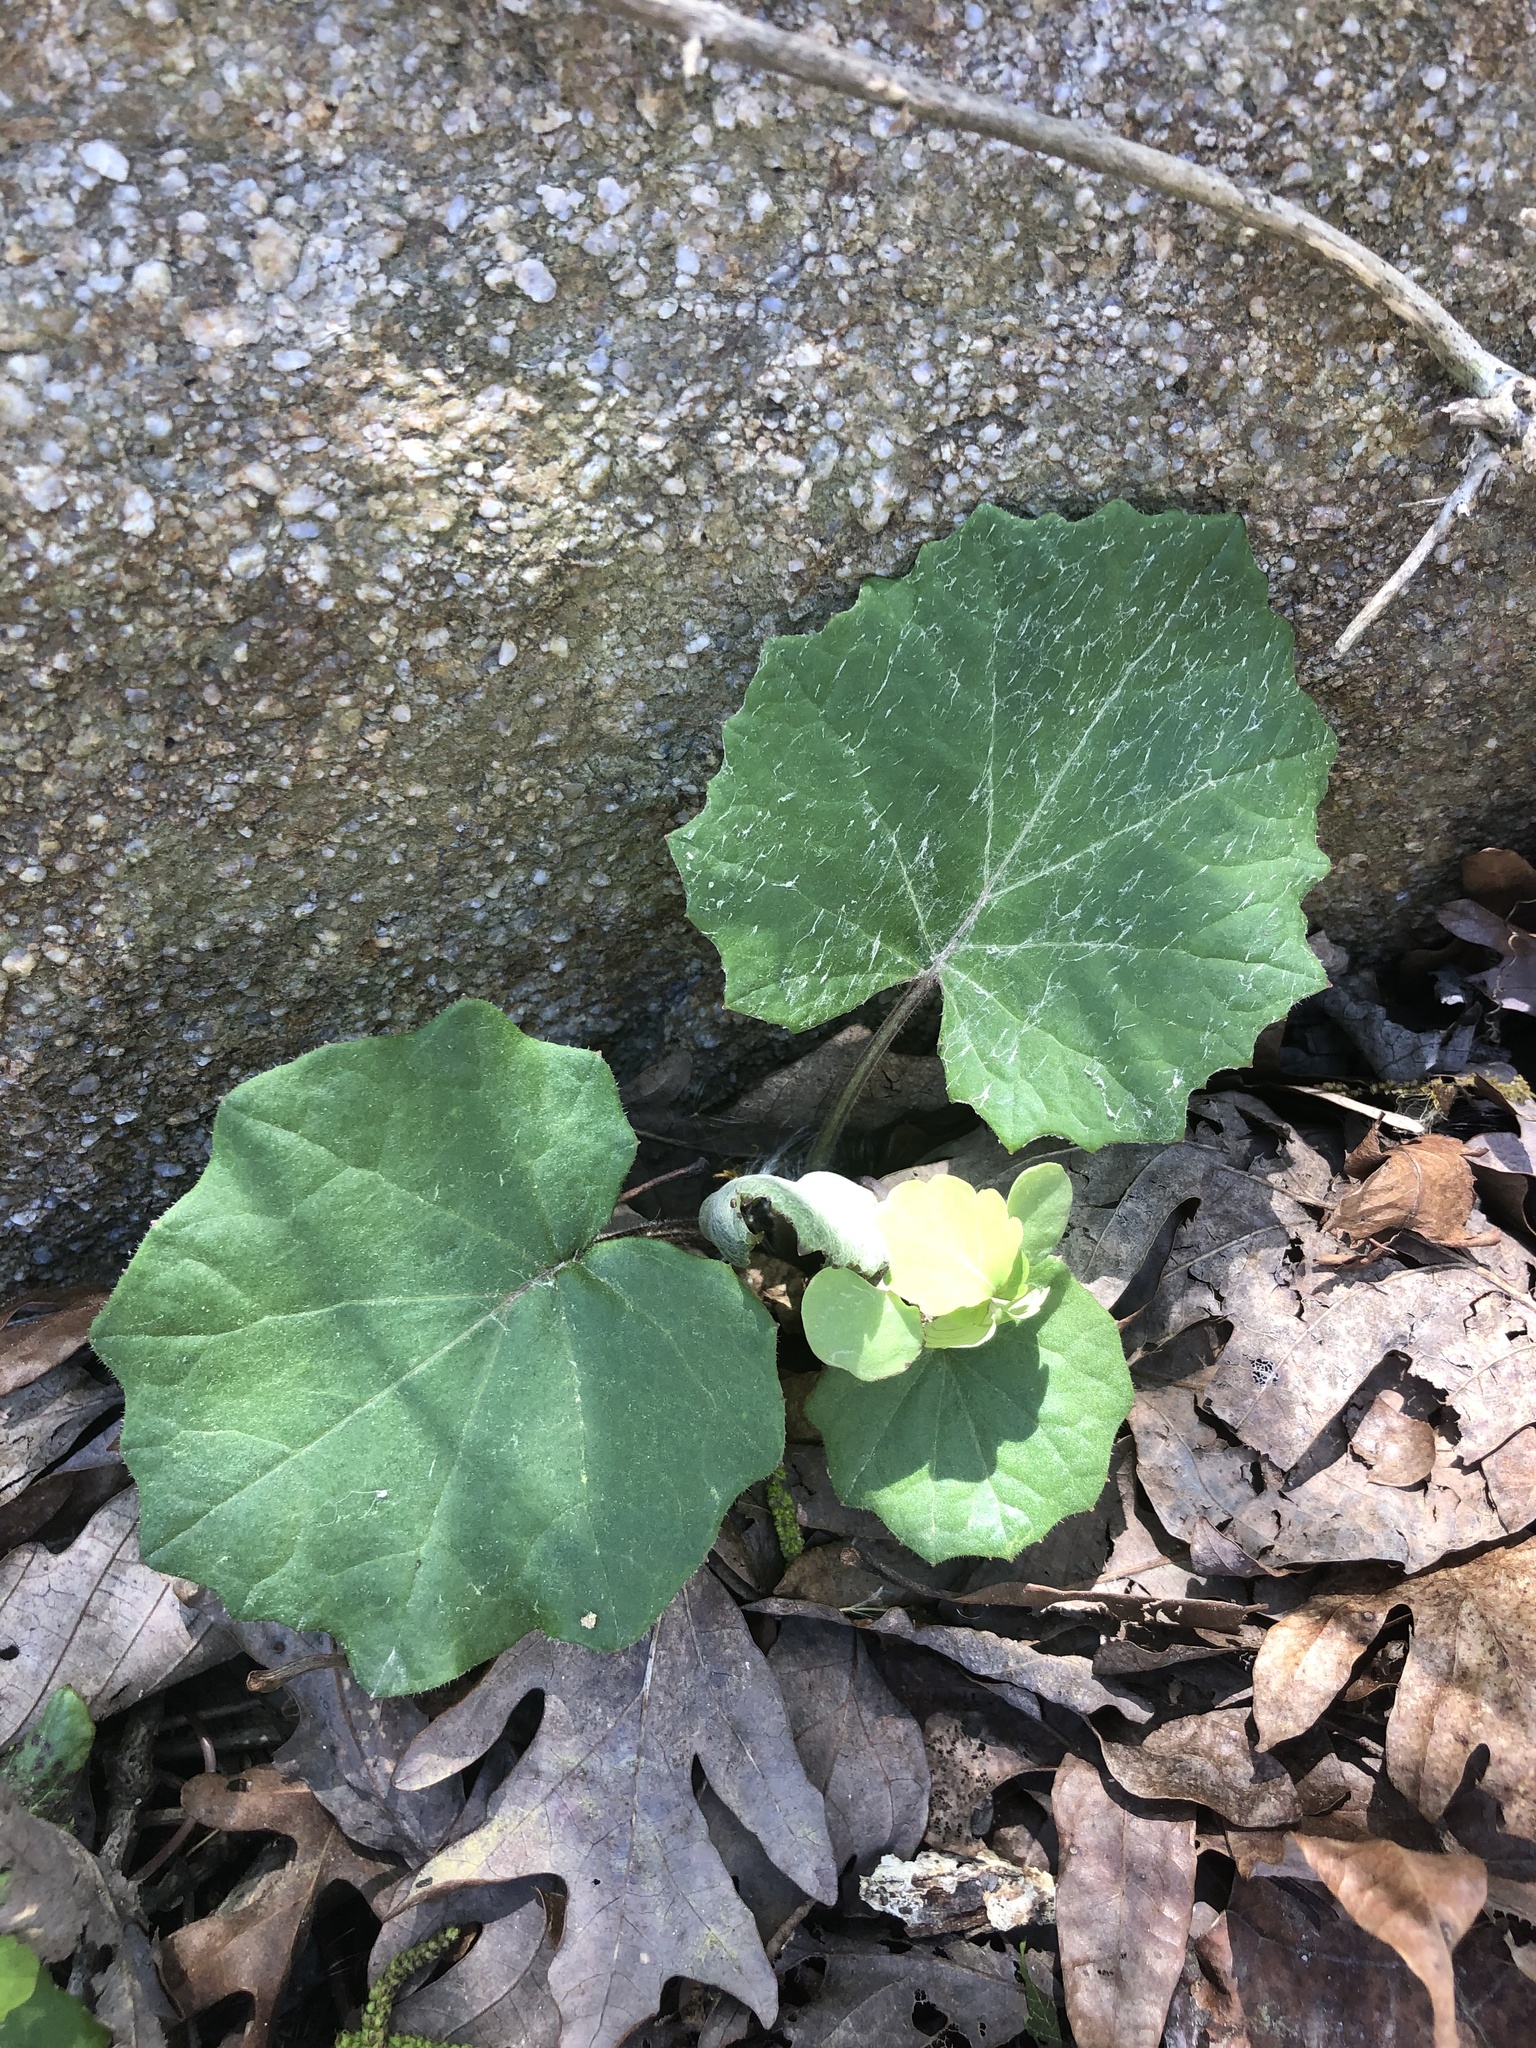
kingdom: Plantae
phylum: Tracheophyta
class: Magnoliopsida
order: Asterales
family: Asteraceae
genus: Tussilago
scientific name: Tussilago farfara
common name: Coltsfoot
